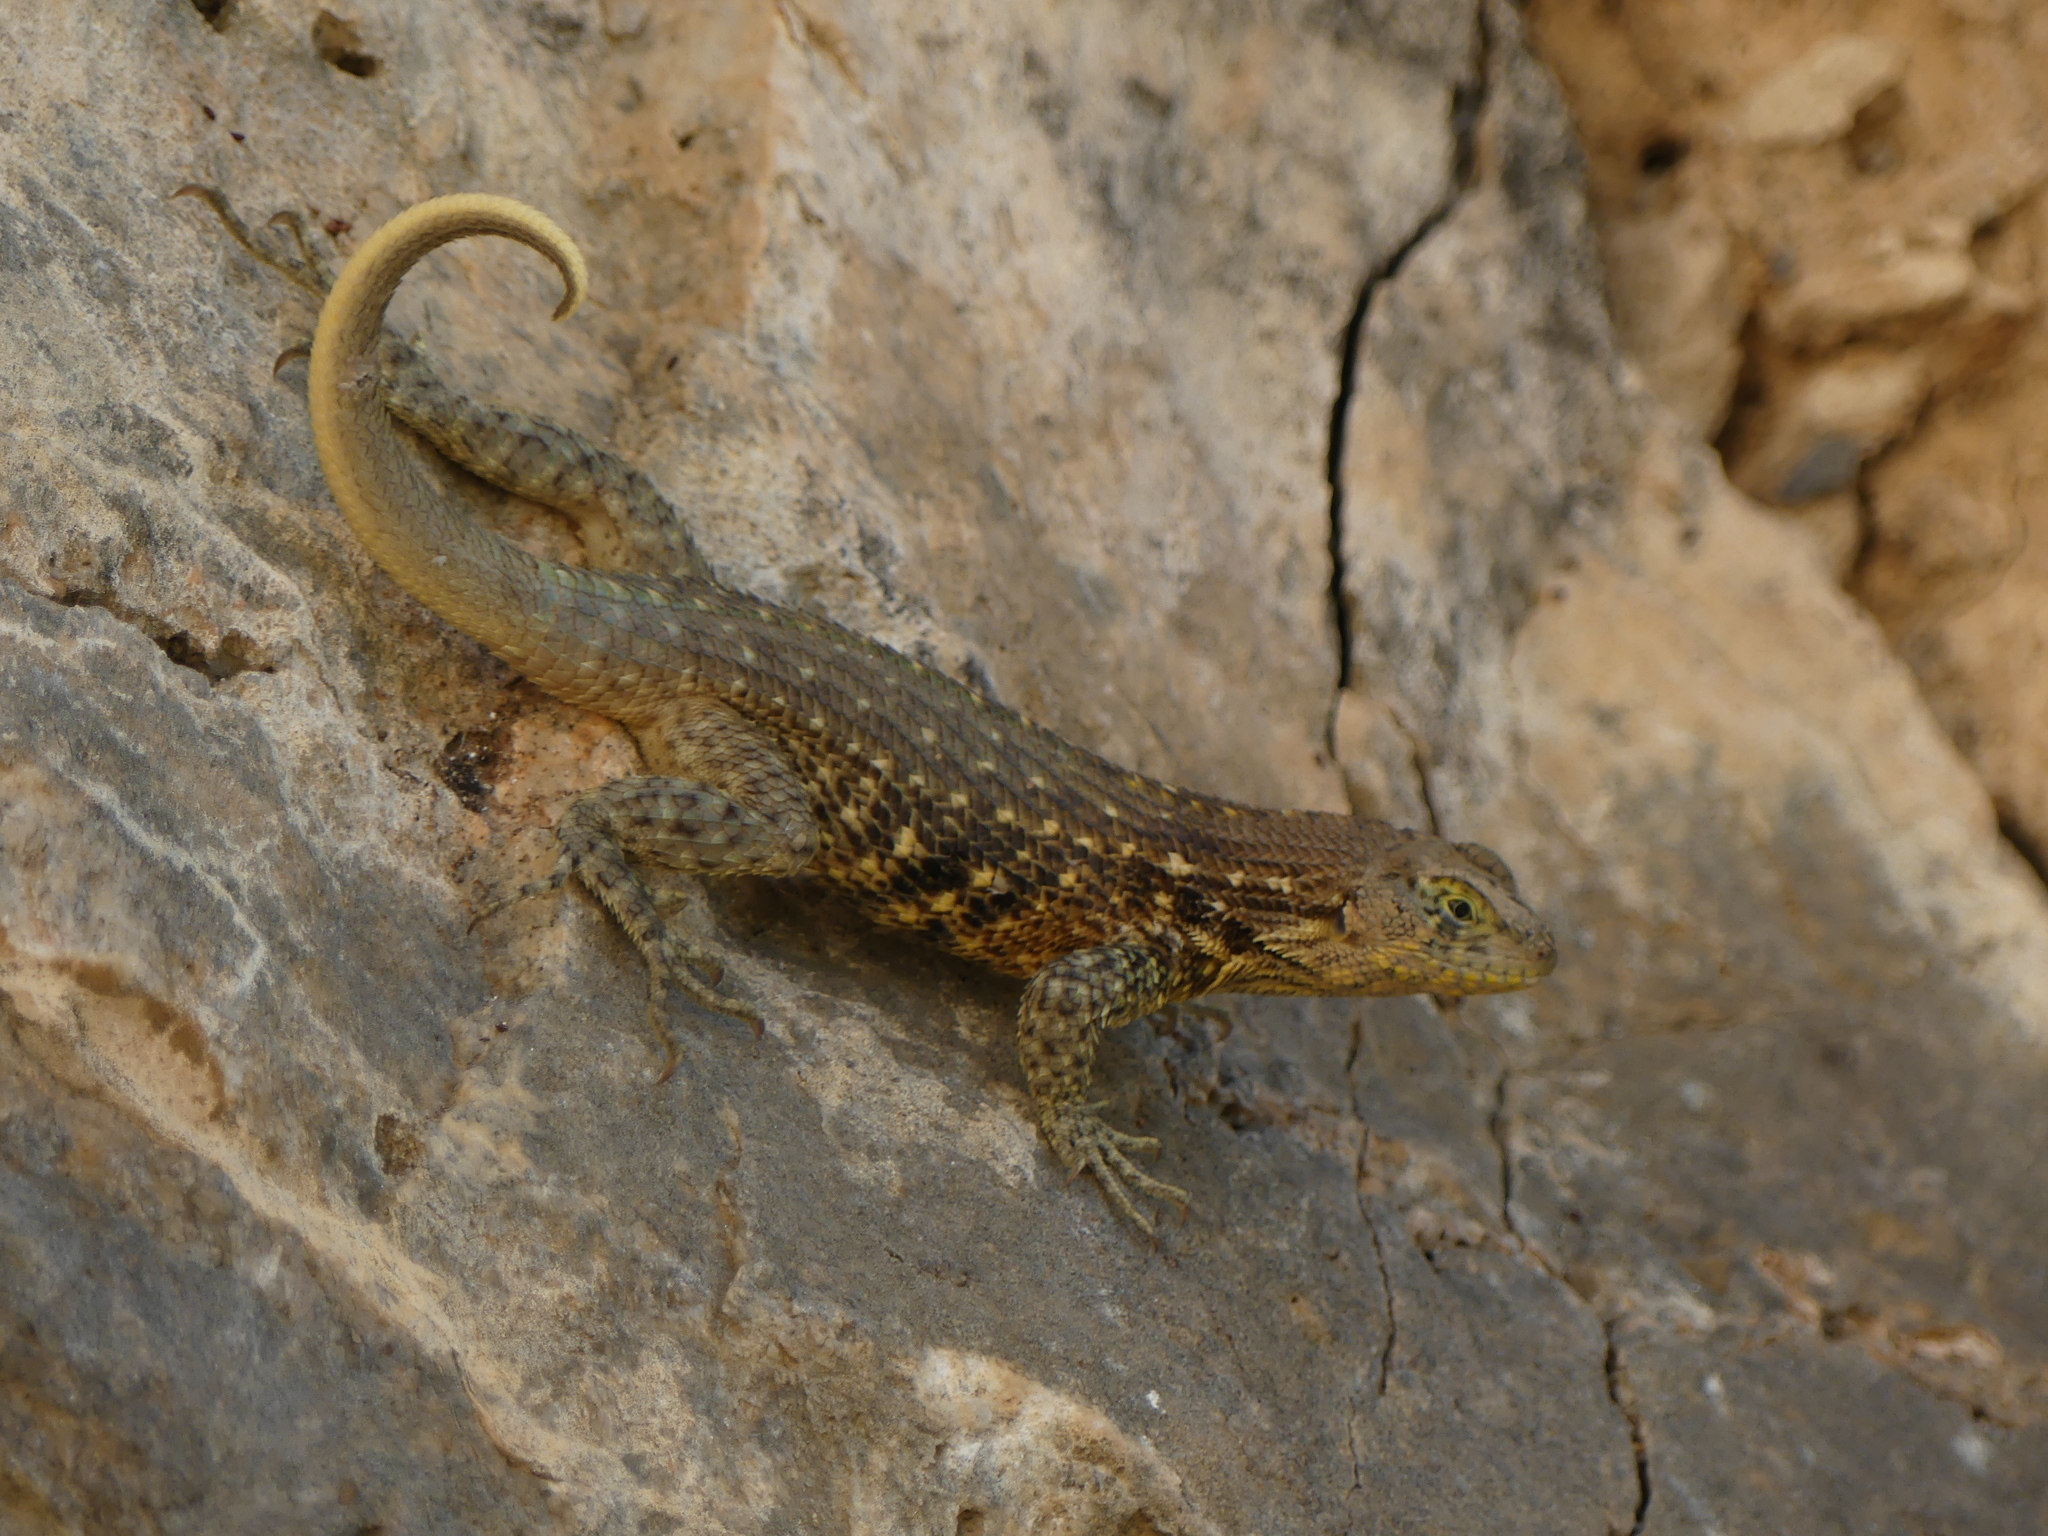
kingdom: Animalia
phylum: Chordata
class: Squamata
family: Leiocephalidae
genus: Leiocephalus
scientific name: Leiocephalus carinatus
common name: Northern curly-tailed lizard
